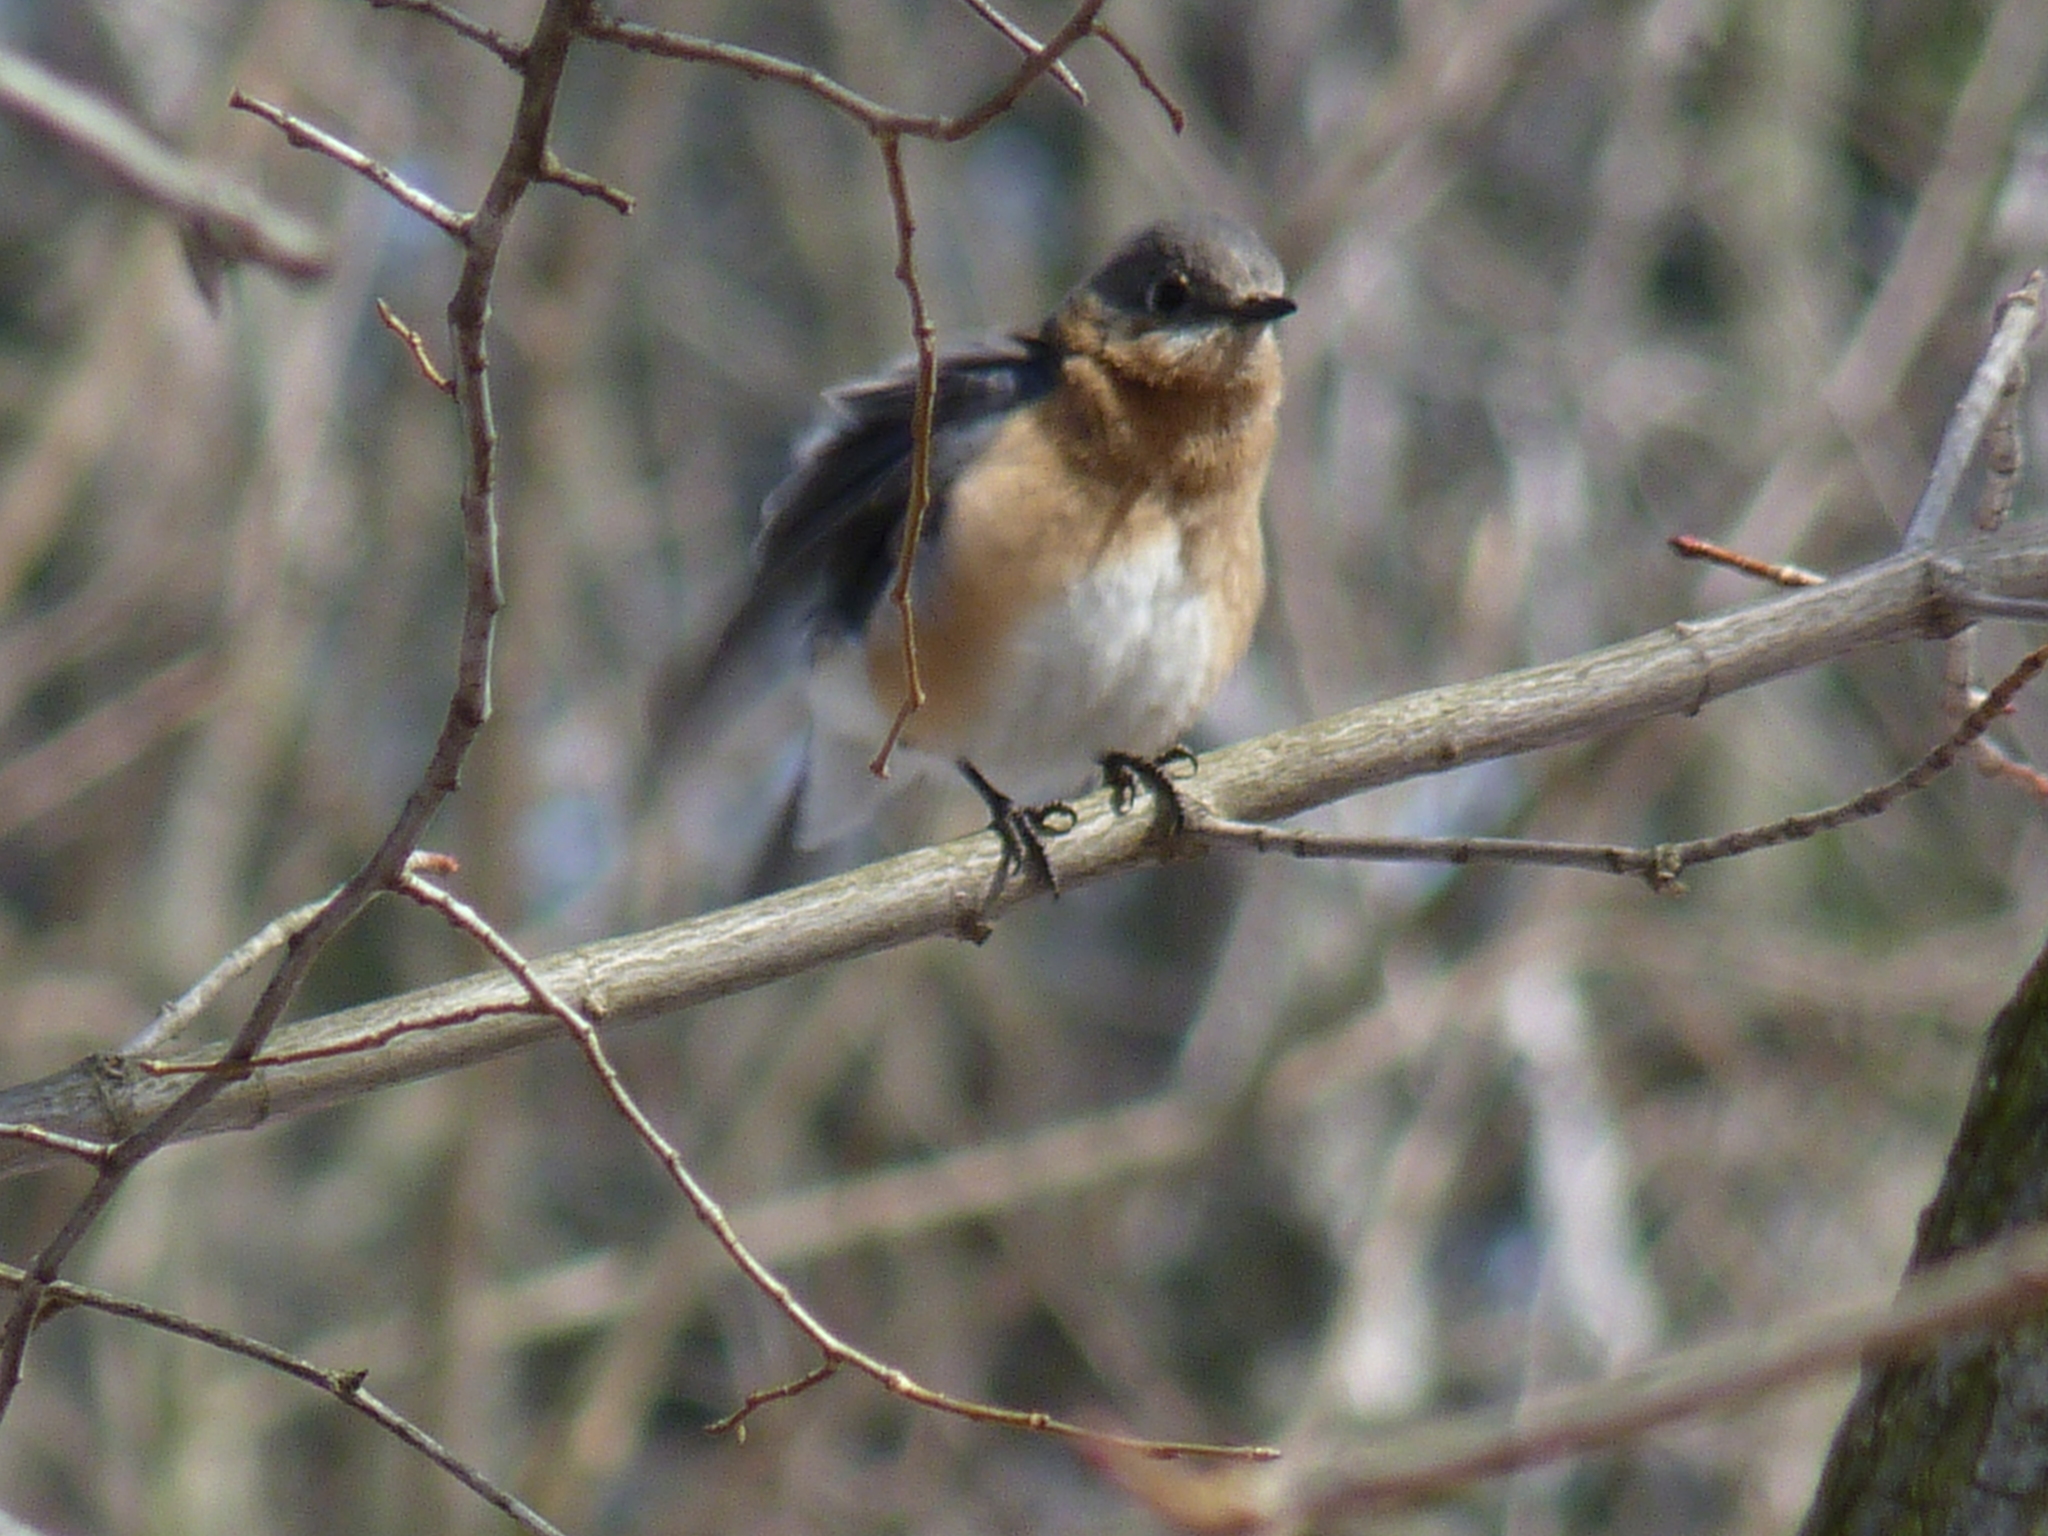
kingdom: Animalia
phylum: Chordata
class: Aves
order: Passeriformes
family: Turdidae
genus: Sialia
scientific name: Sialia sialis
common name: Eastern bluebird
